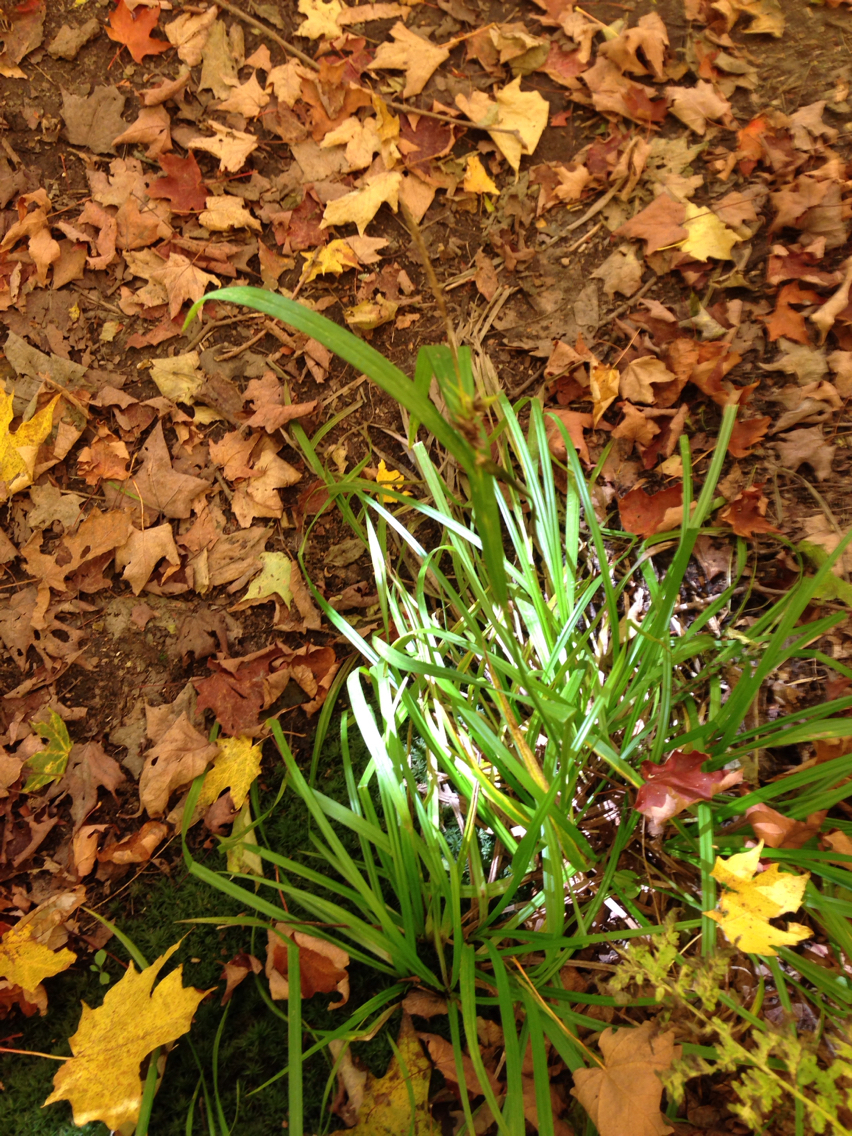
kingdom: Plantae
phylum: Tracheophyta
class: Liliopsida
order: Poales
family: Cyperaceae
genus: Carex
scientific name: Carex intumescens
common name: Greater bladder sedge
